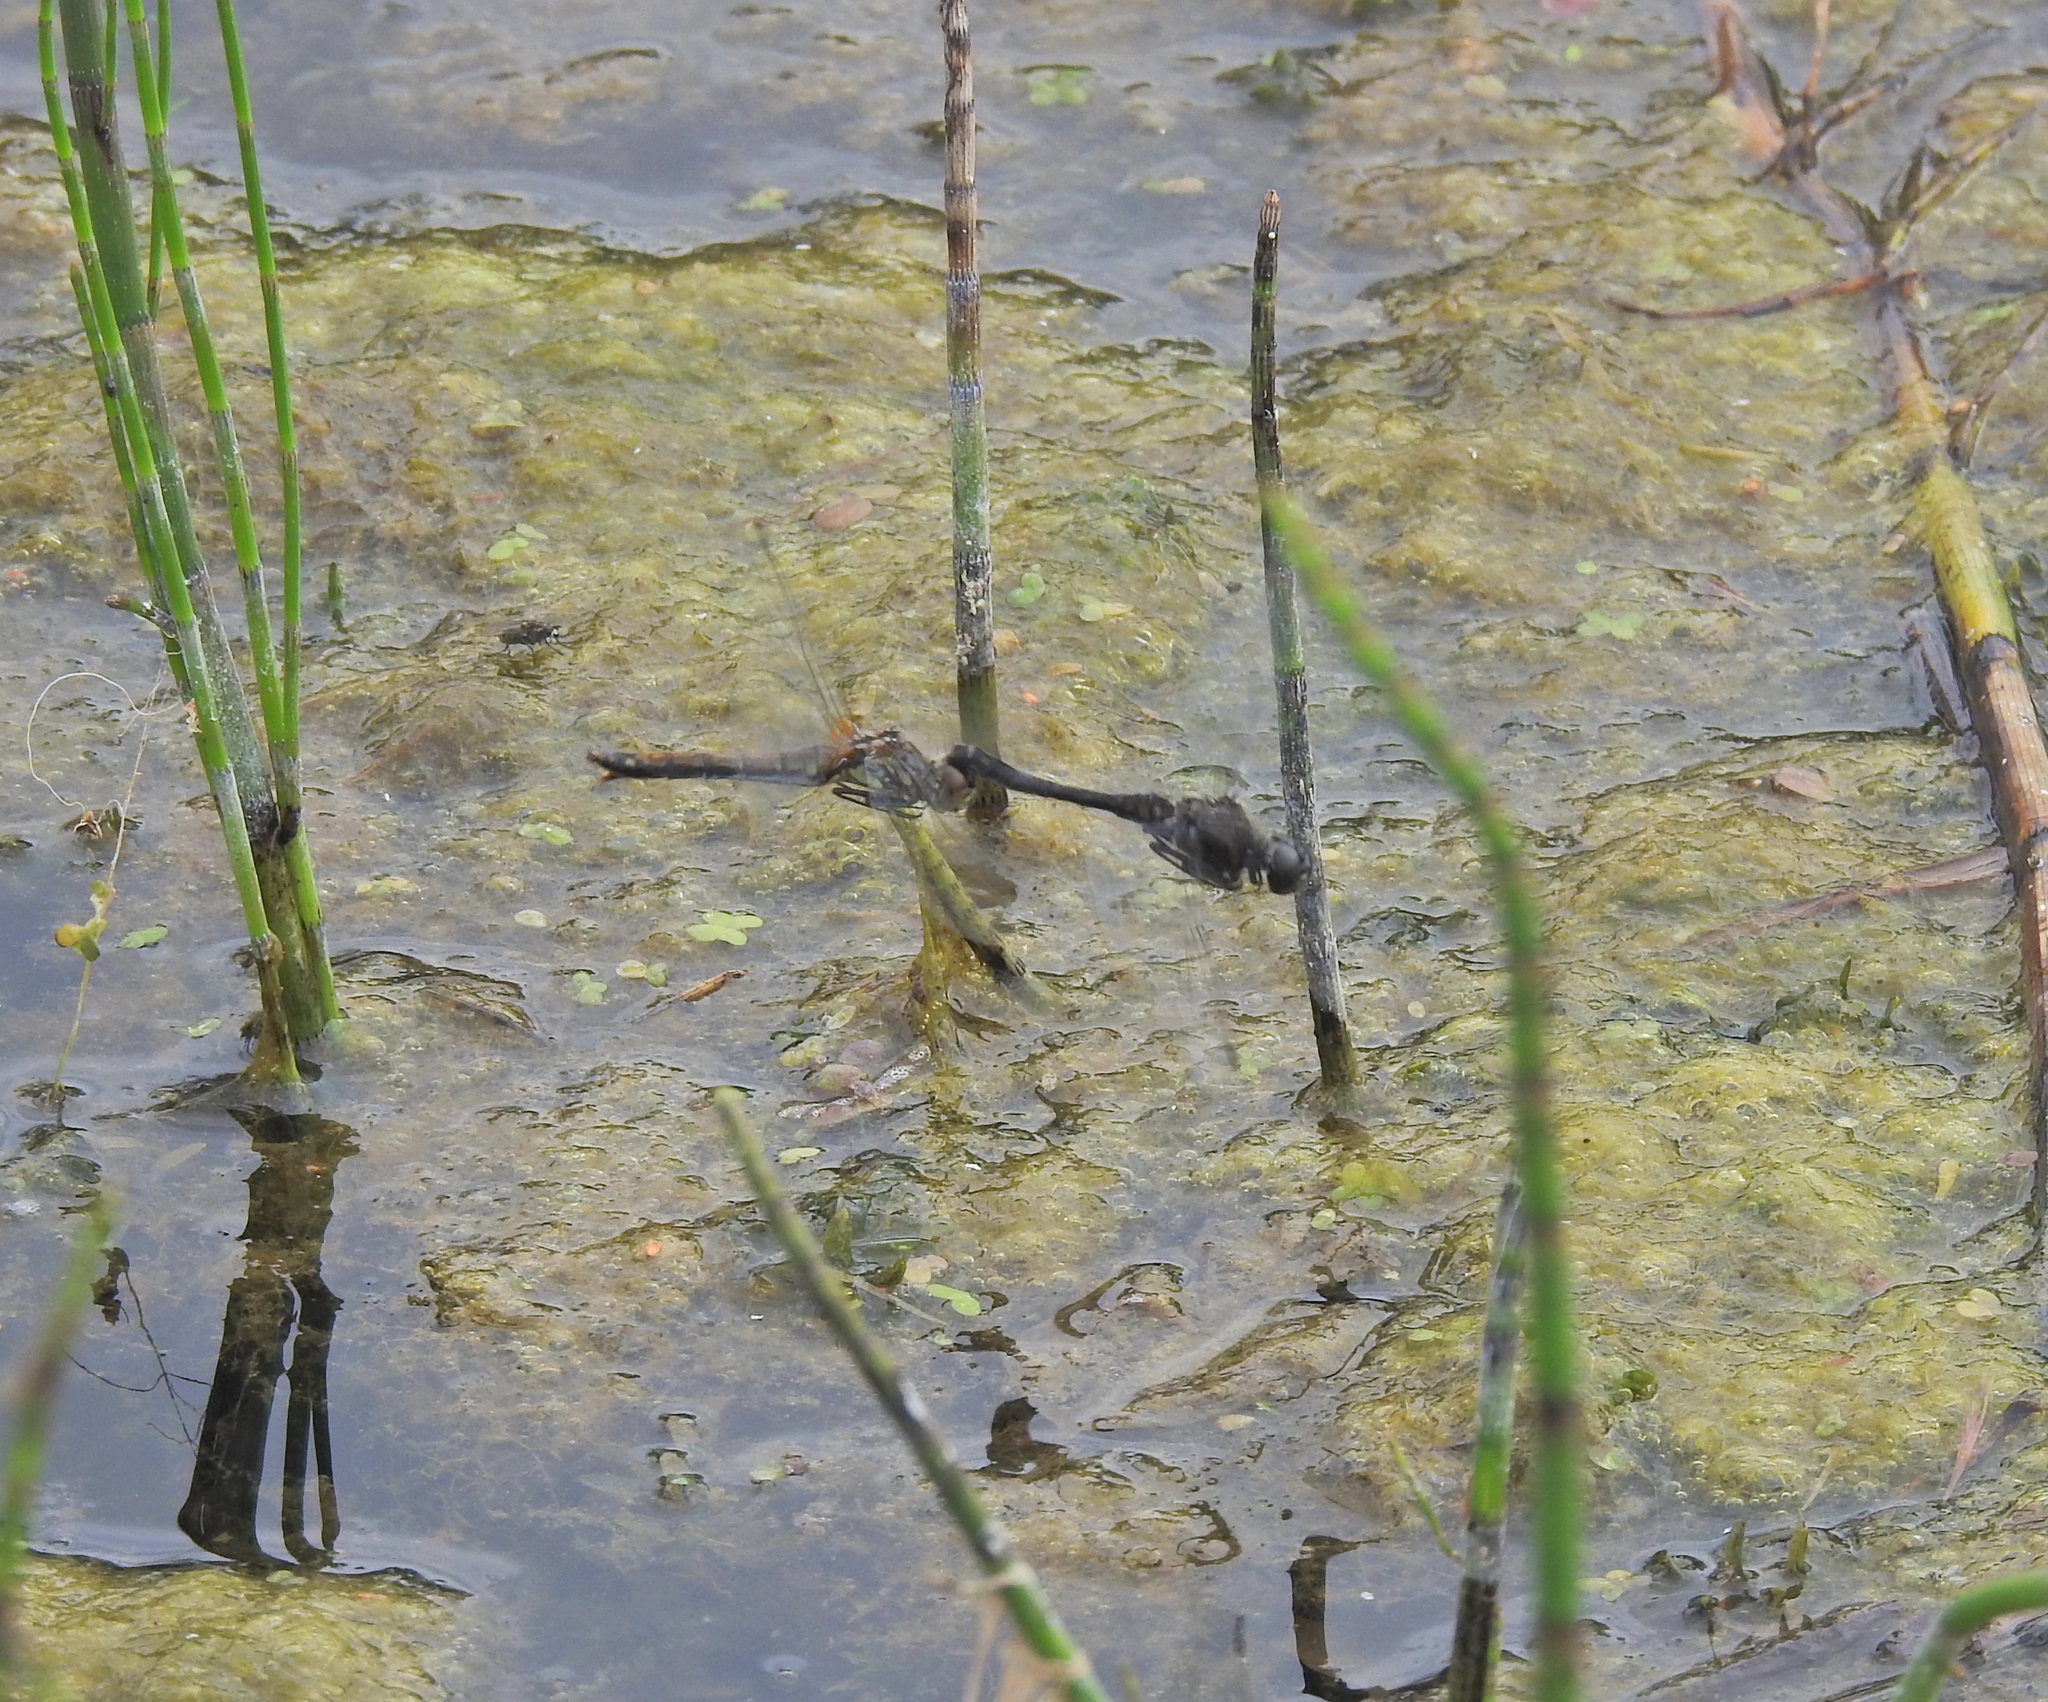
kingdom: Animalia
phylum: Arthropoda
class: Insecta
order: Odonata
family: Libellulidae
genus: Sympetrum
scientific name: Sympetrum danae
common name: Black darter
